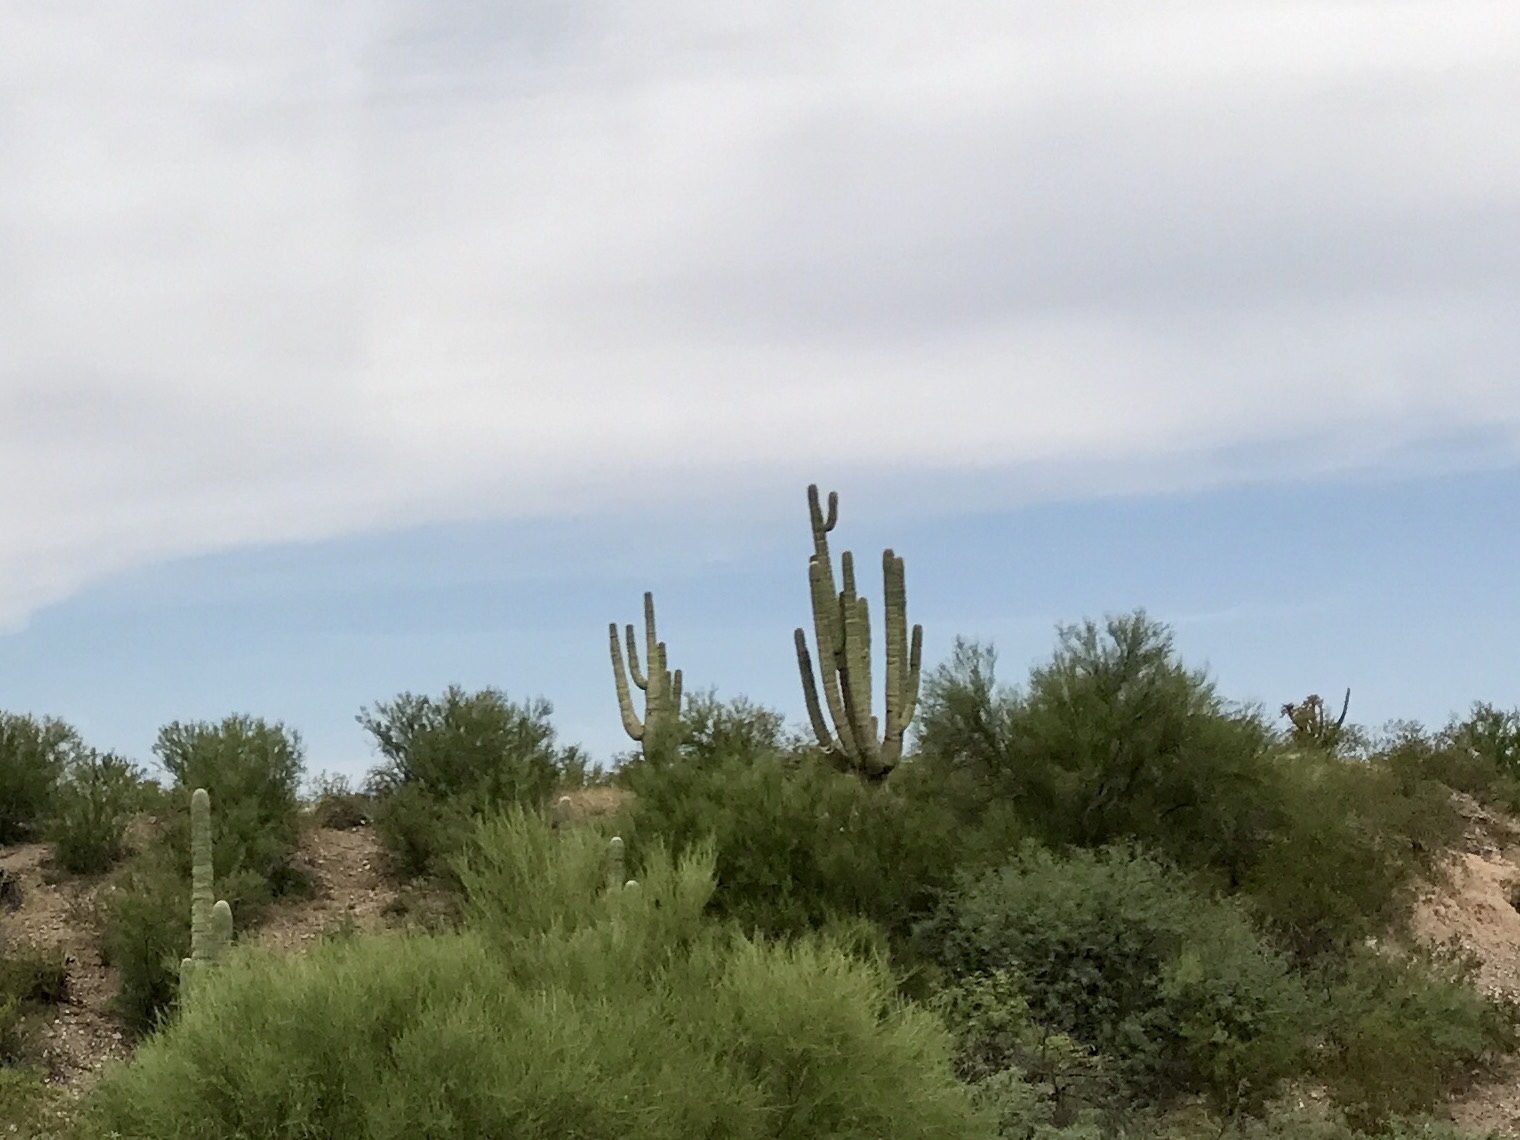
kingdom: Plantae
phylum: Tracheophyta
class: Magnoliopsida
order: Caryophyllales
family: Cactaceae
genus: Carnegiea
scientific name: Carnegiea gigantea
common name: Saguaro
